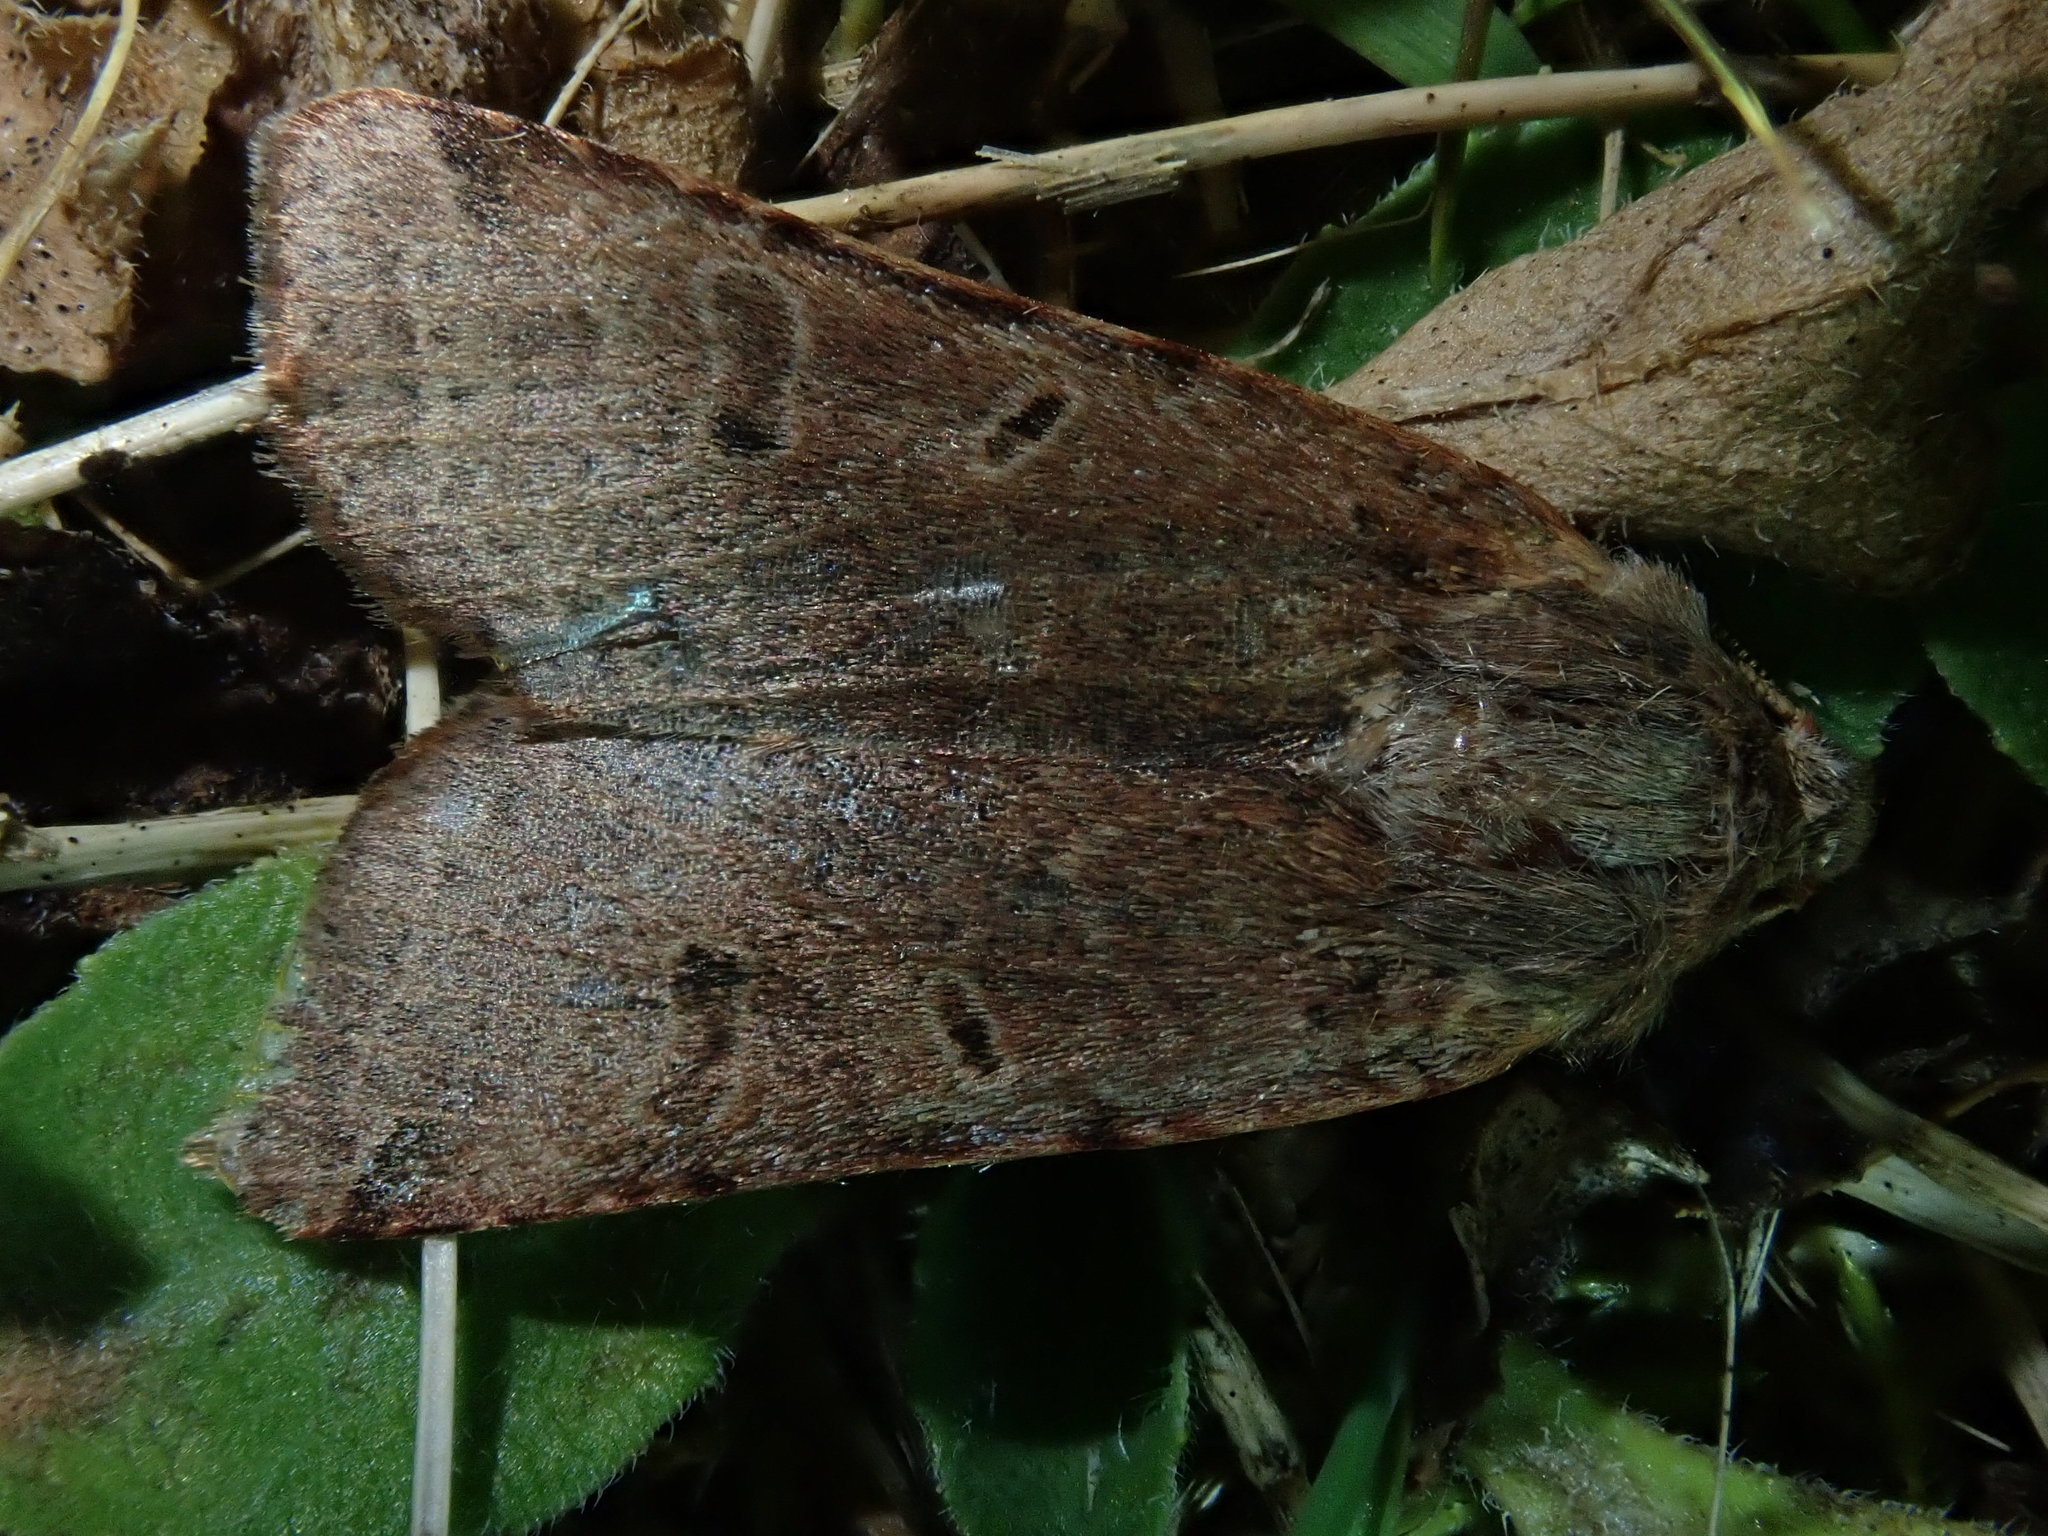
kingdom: Animalia
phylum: Arthropoda
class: Insecta
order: Lepidoptera
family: Noctuidae
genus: Agrochola
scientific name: Agrochola lychnidis
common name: Beaded chestnut
